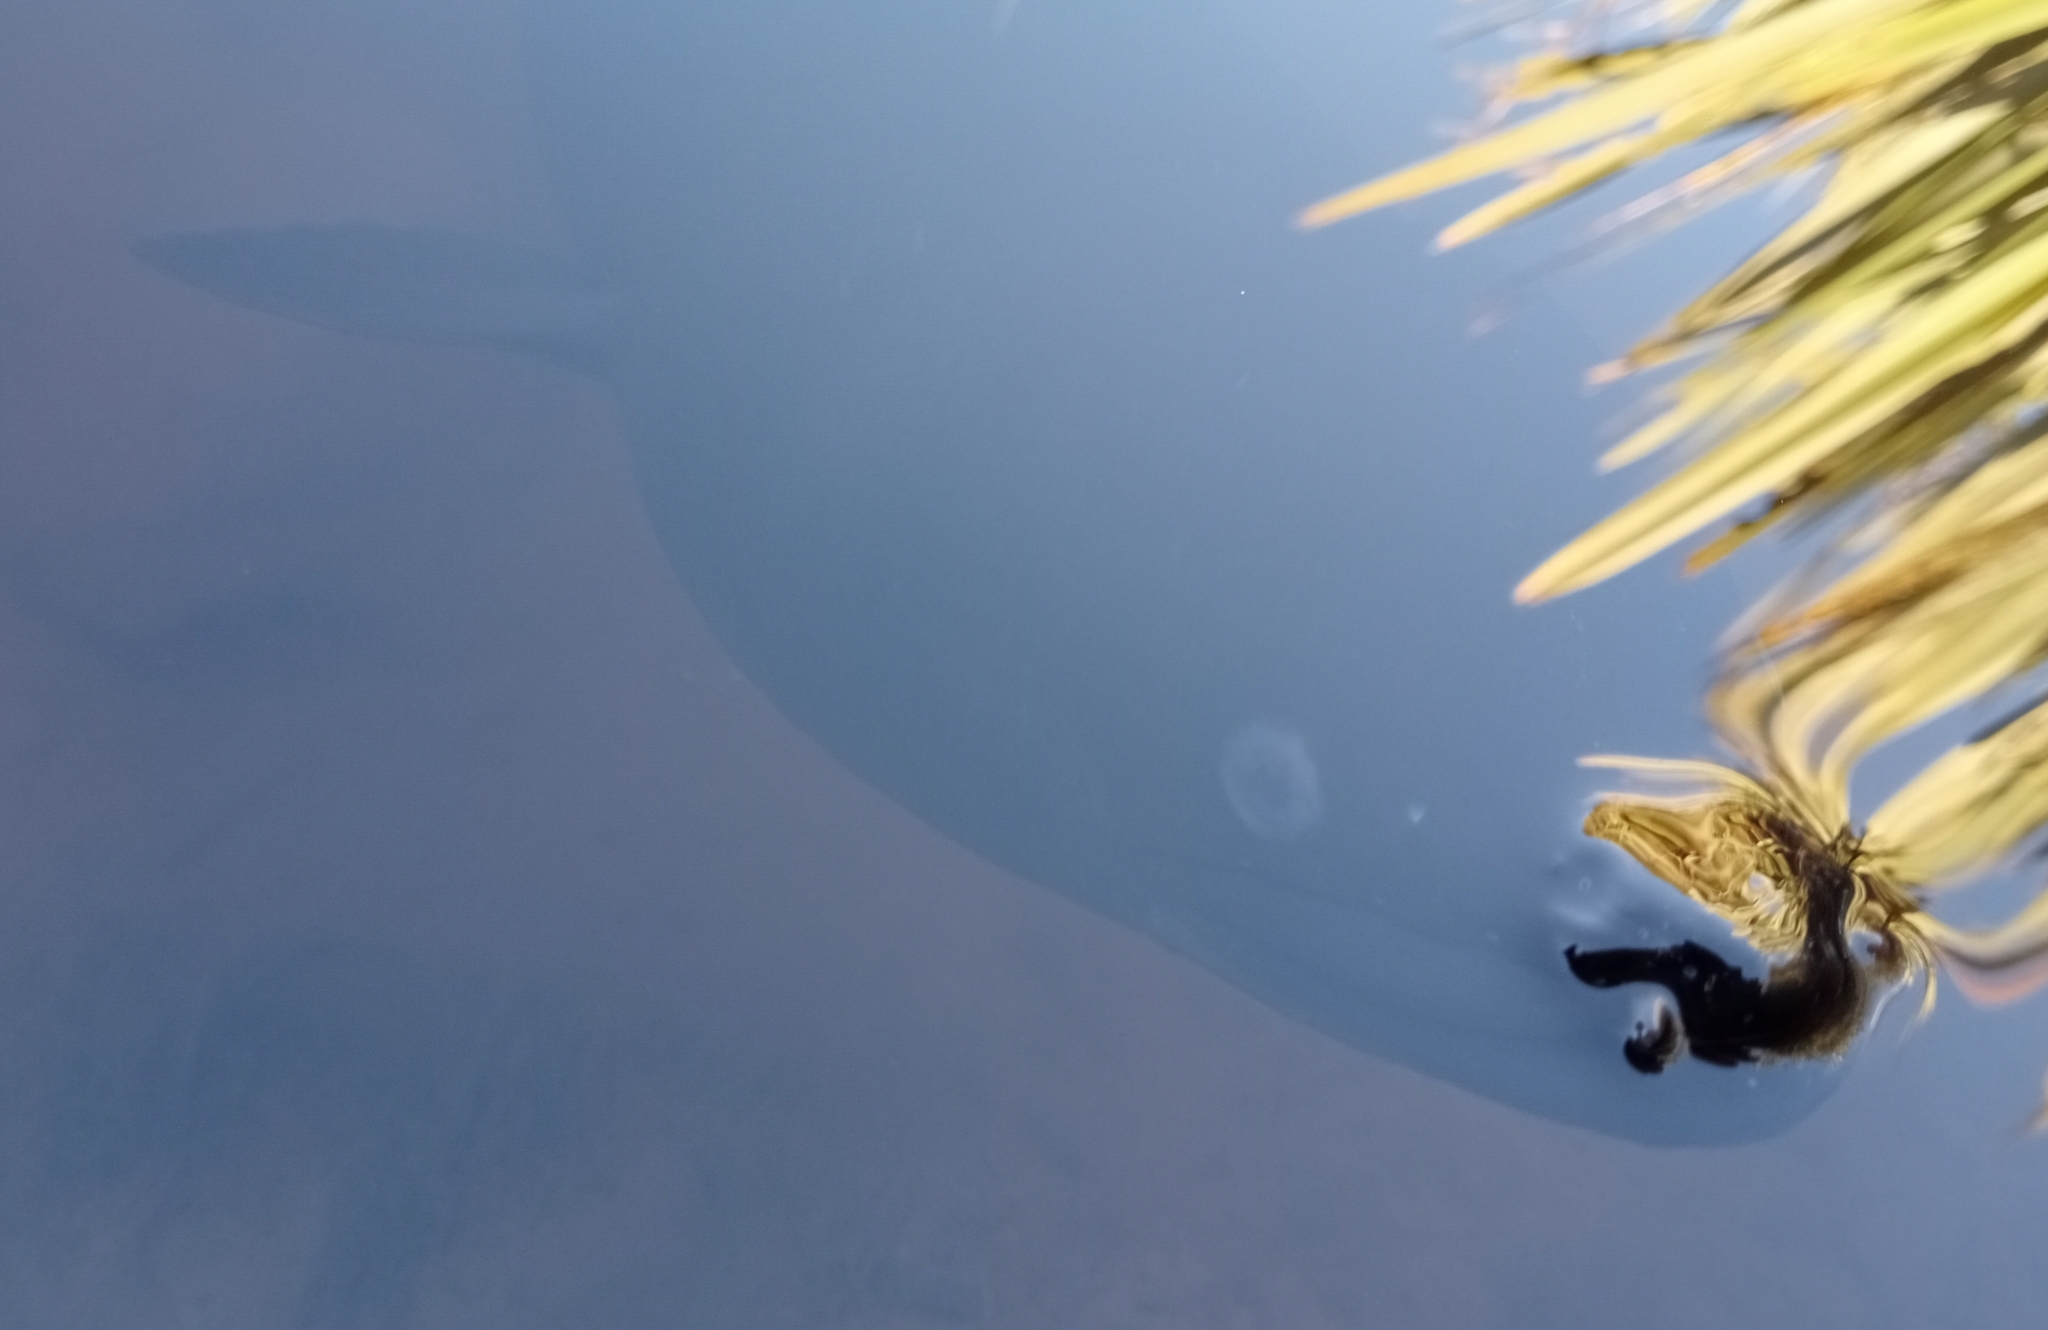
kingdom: Animalia
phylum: Chordata
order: Anguilliformes
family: Anguillidae
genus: Anguilla
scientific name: Anguilla dieffenbachii
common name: New zealand longfin eel
